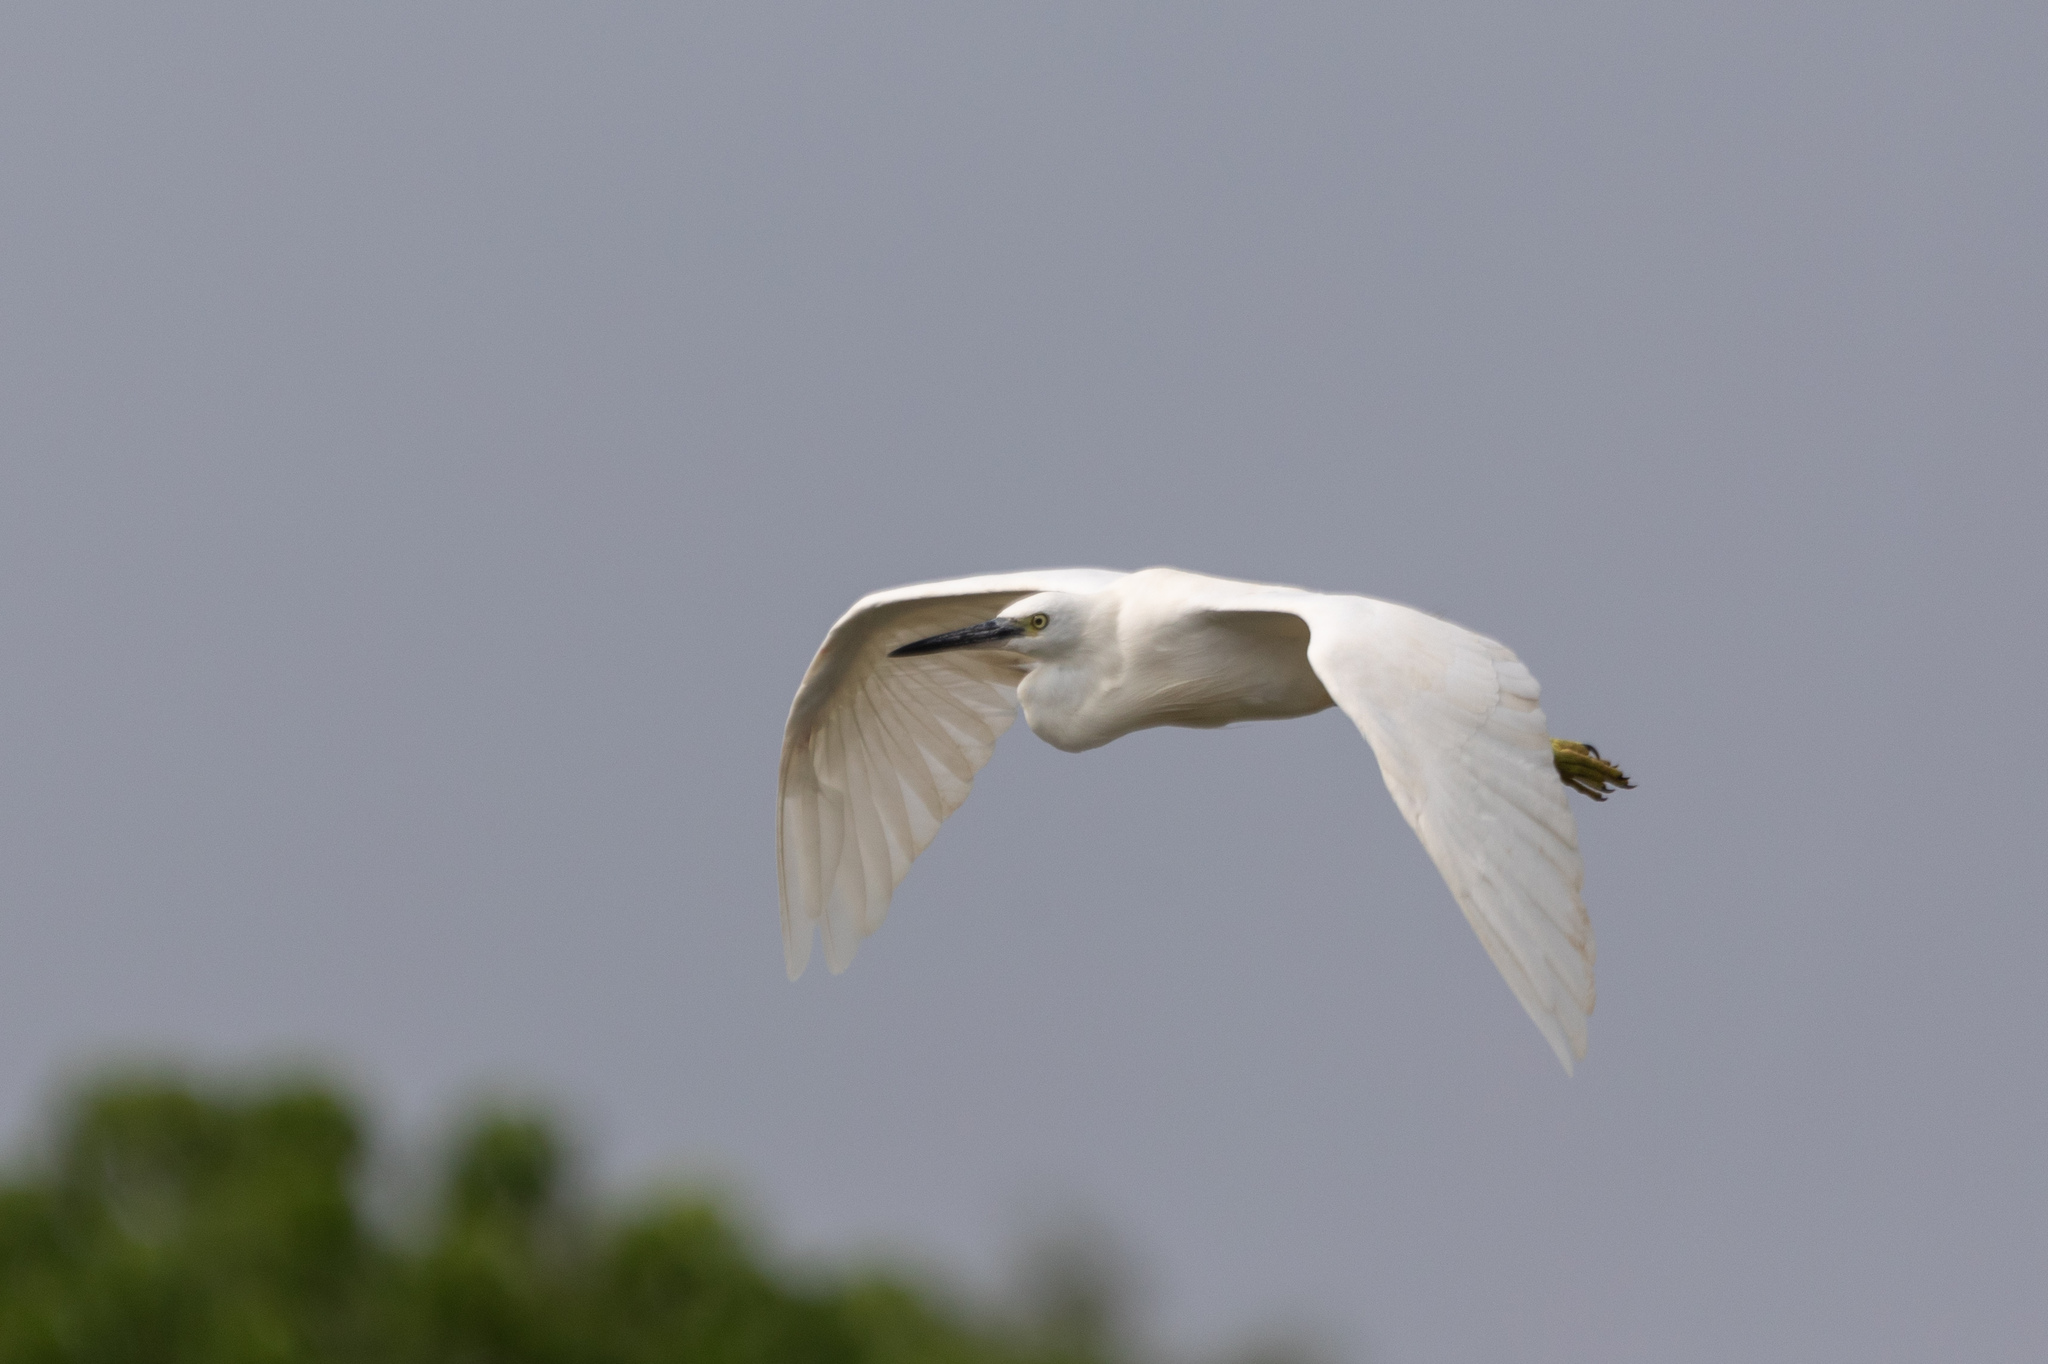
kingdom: Animalia
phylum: Chordata
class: Aves
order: Pelecaniformes
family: Ardeidae
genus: Egretta
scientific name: Egretta garzetta
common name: Little egret
